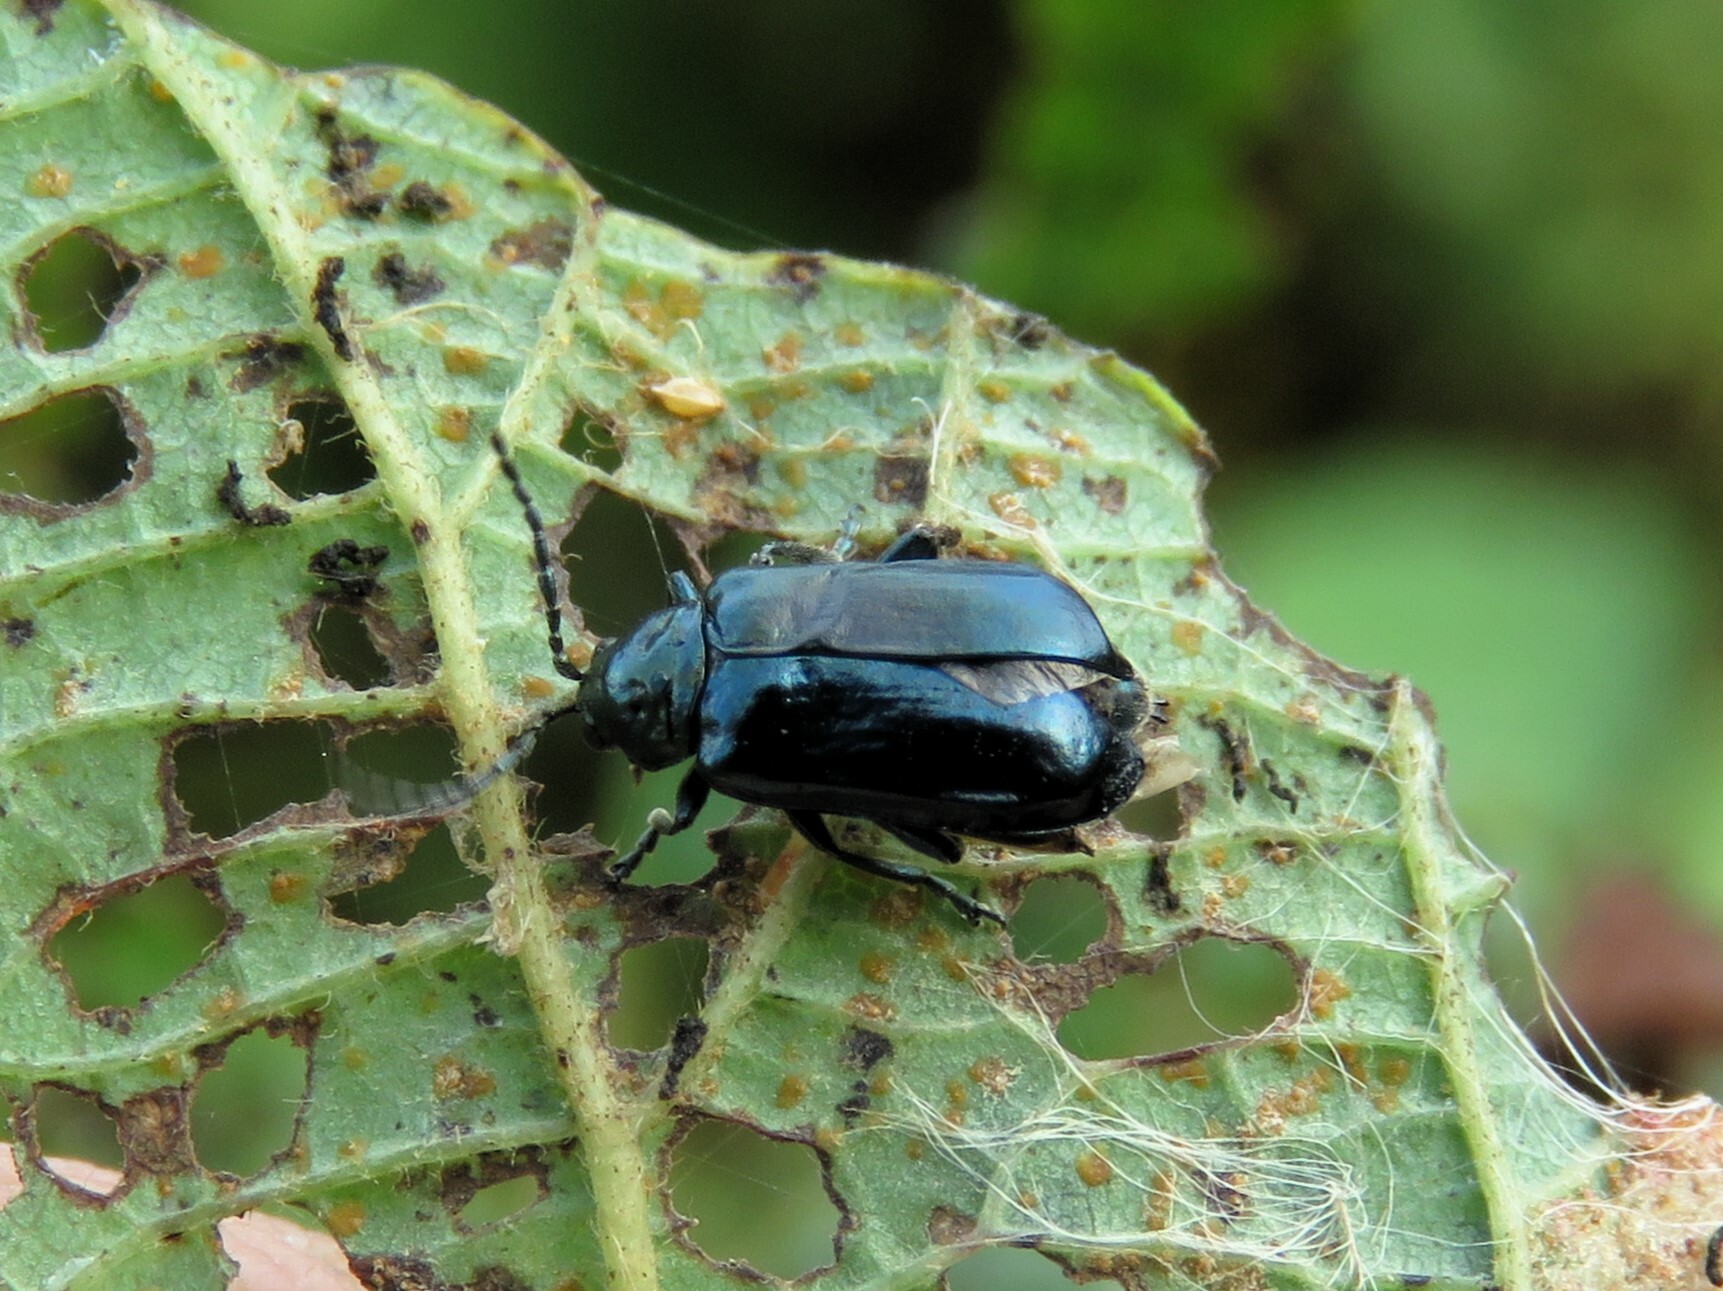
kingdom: Animalia
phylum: Arthropoda
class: Insecta
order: Coleoptera
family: Chrysomelidae
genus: Altica
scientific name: Altica ambiens
